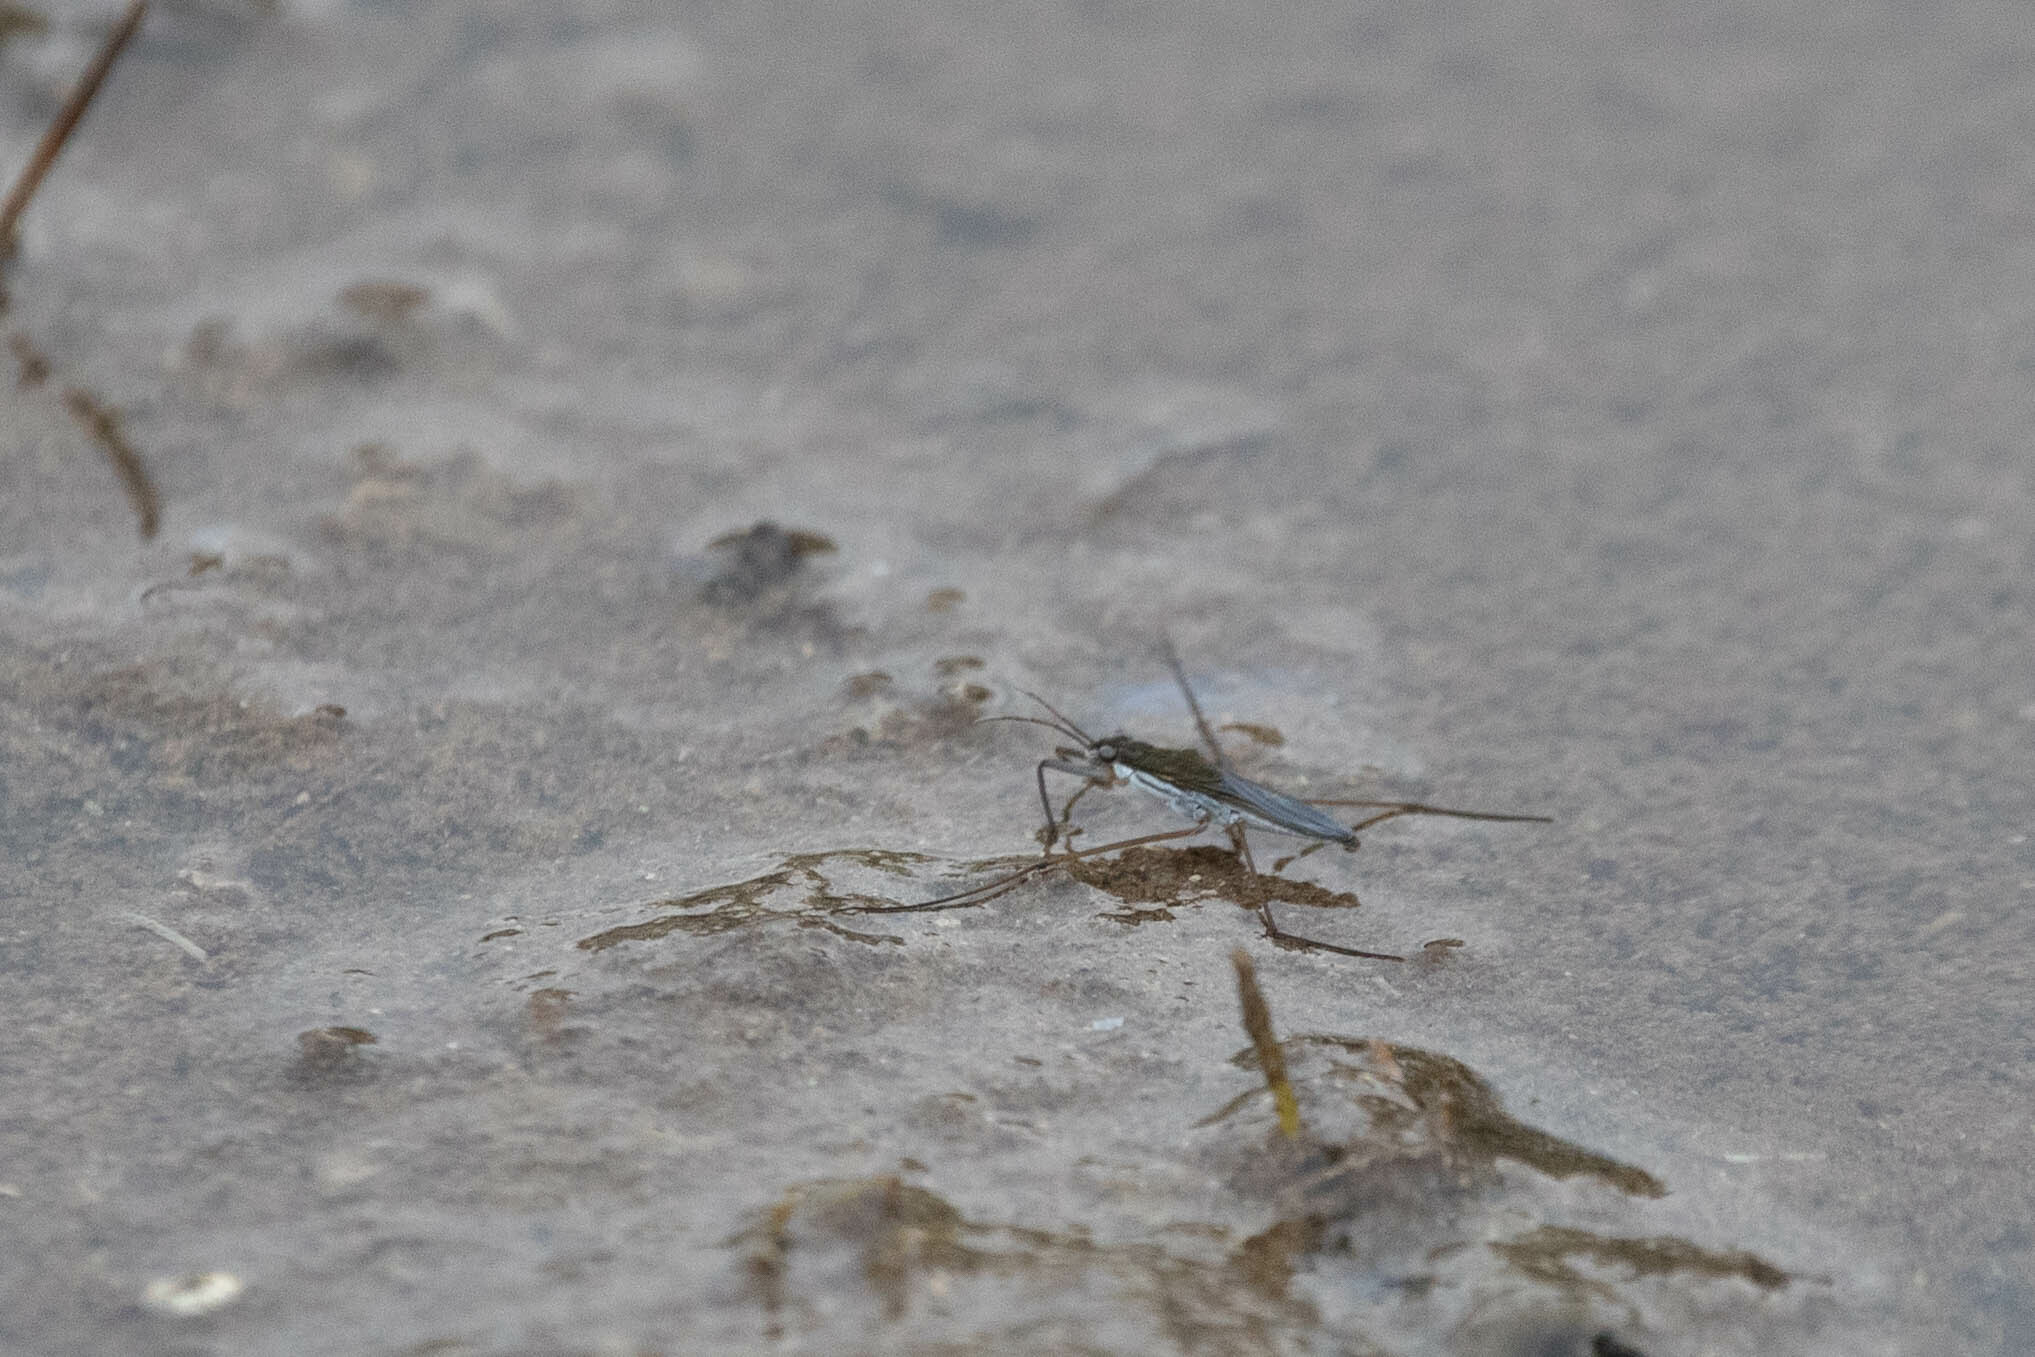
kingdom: Animalia
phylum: Arthropoda
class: Insecta
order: Hemiptera
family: Gerridae
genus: Gerris
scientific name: Gerris
